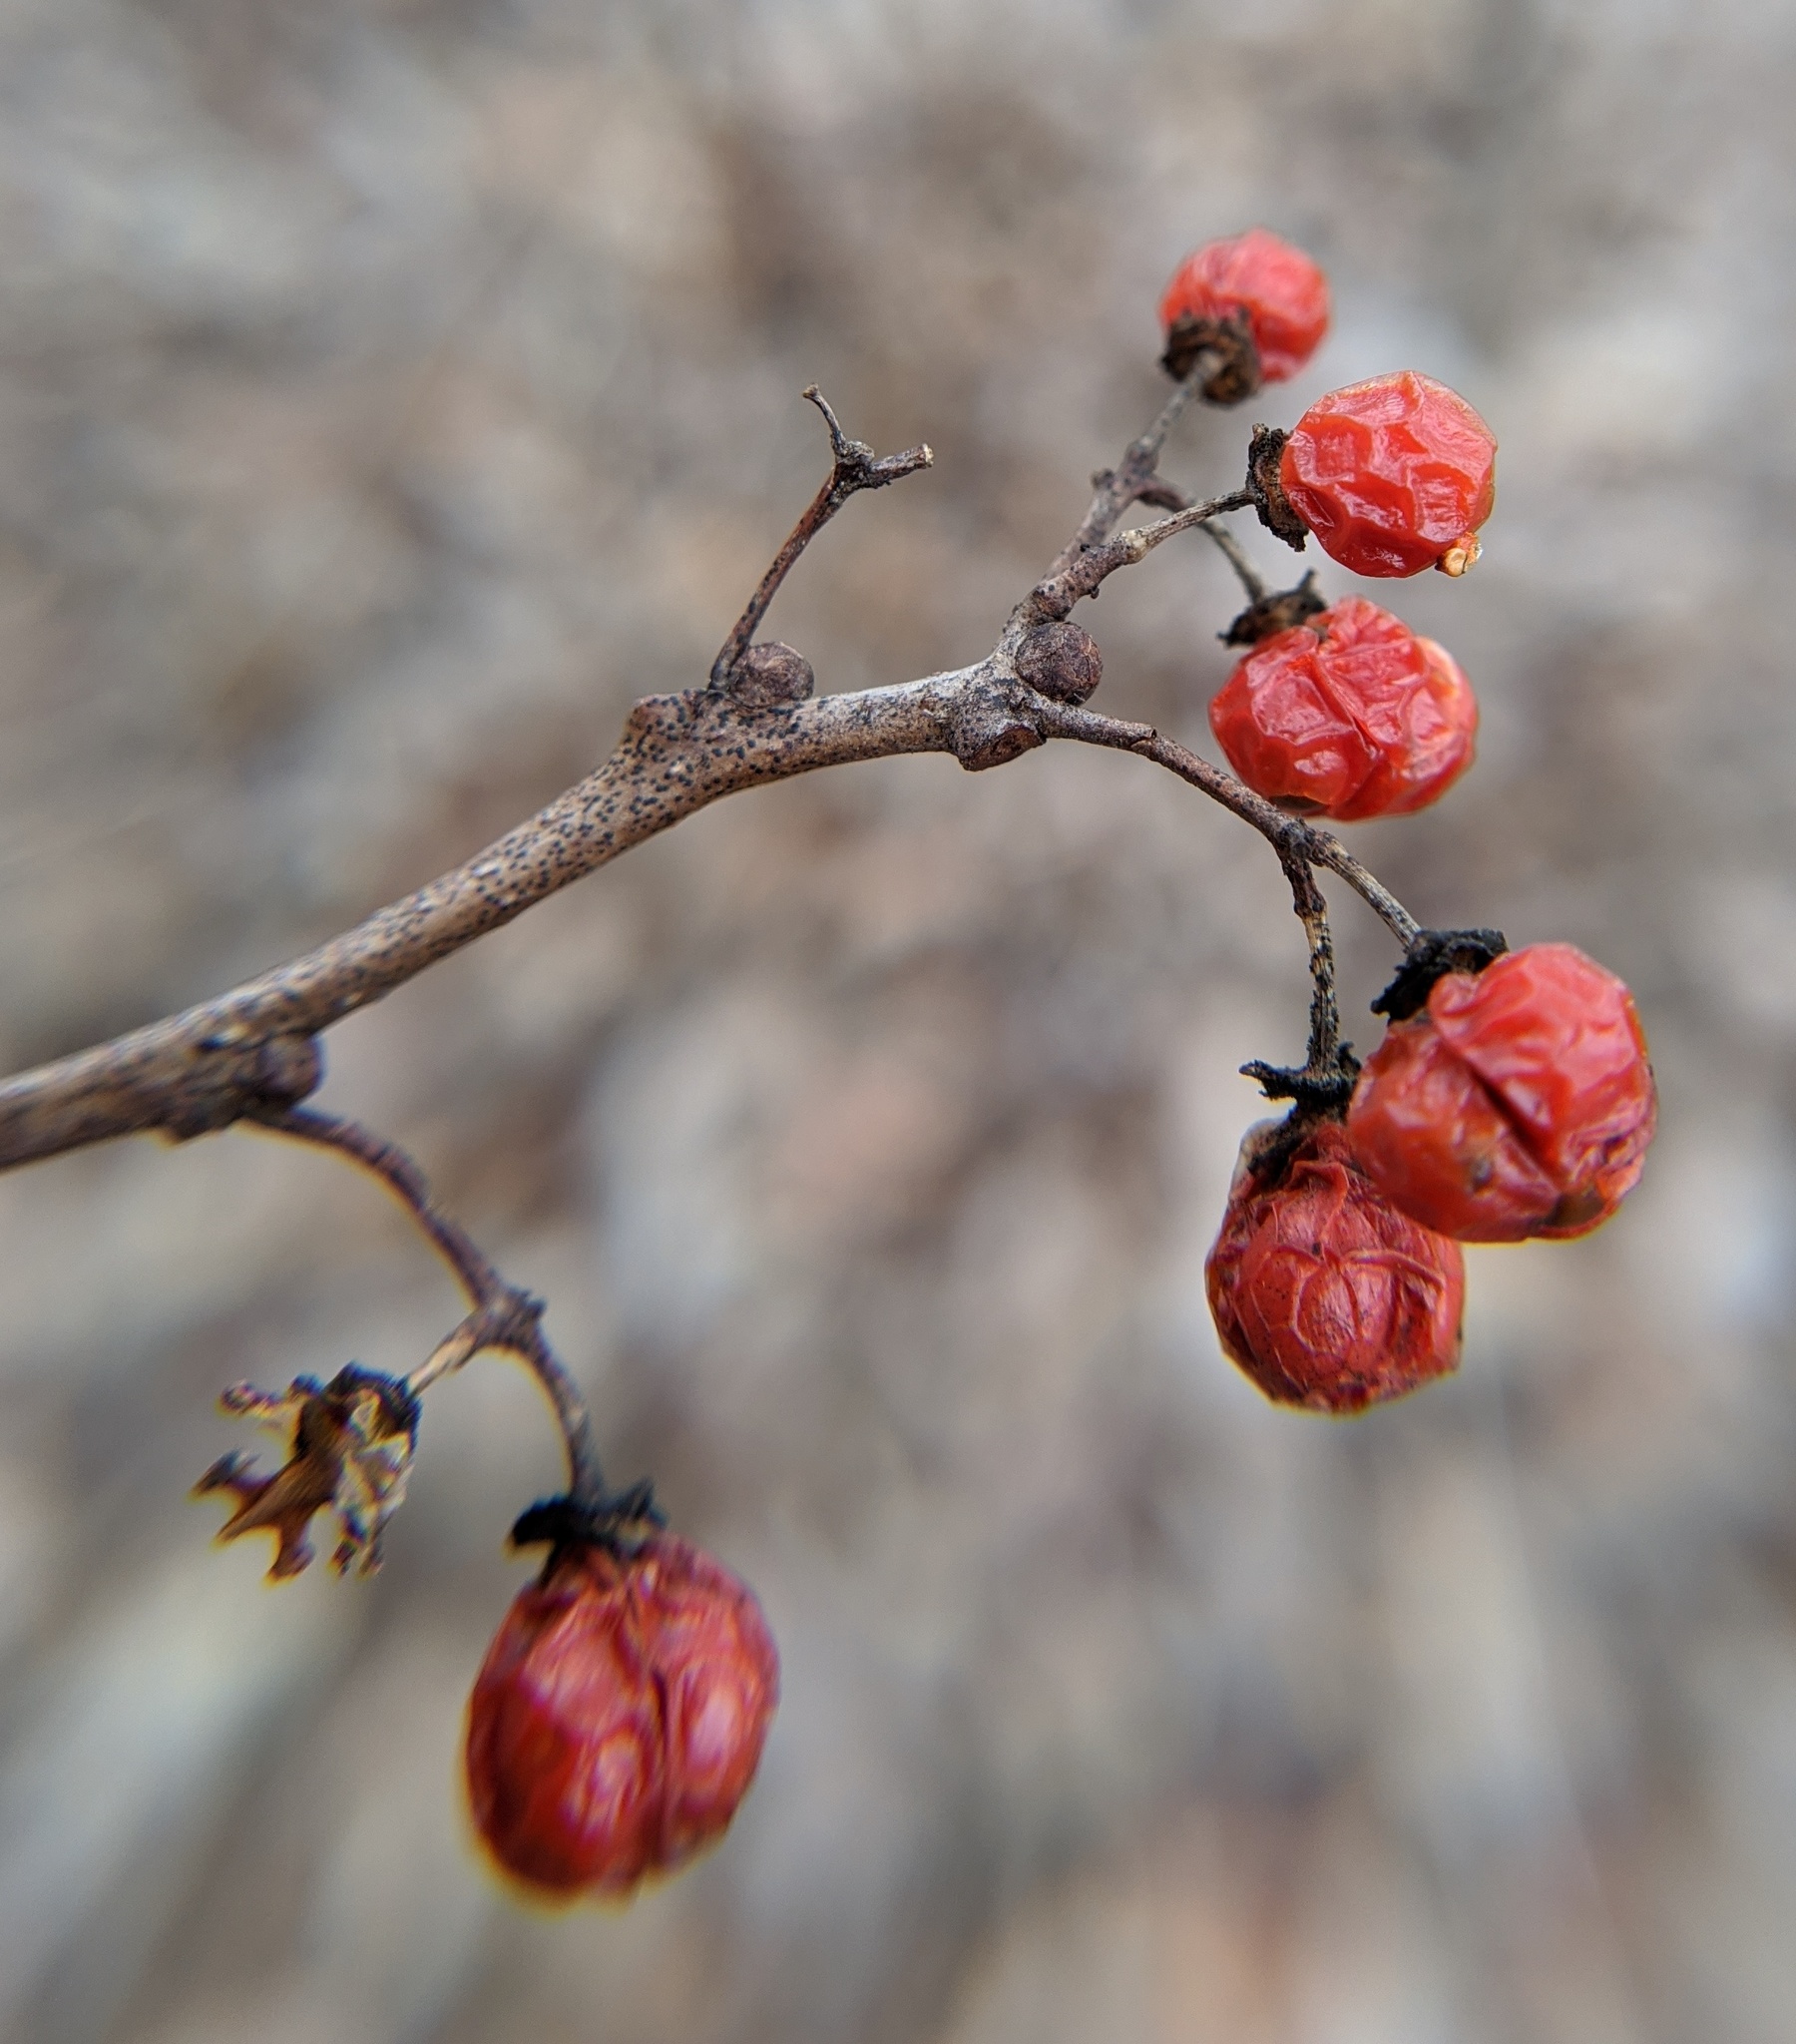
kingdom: Plantae
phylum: Tracheophyta
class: Magnoliopsida
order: Celastrales
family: Celastraceae
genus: Celastrus
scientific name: Celastrus orbiculatus
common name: Oriental bittersweet
